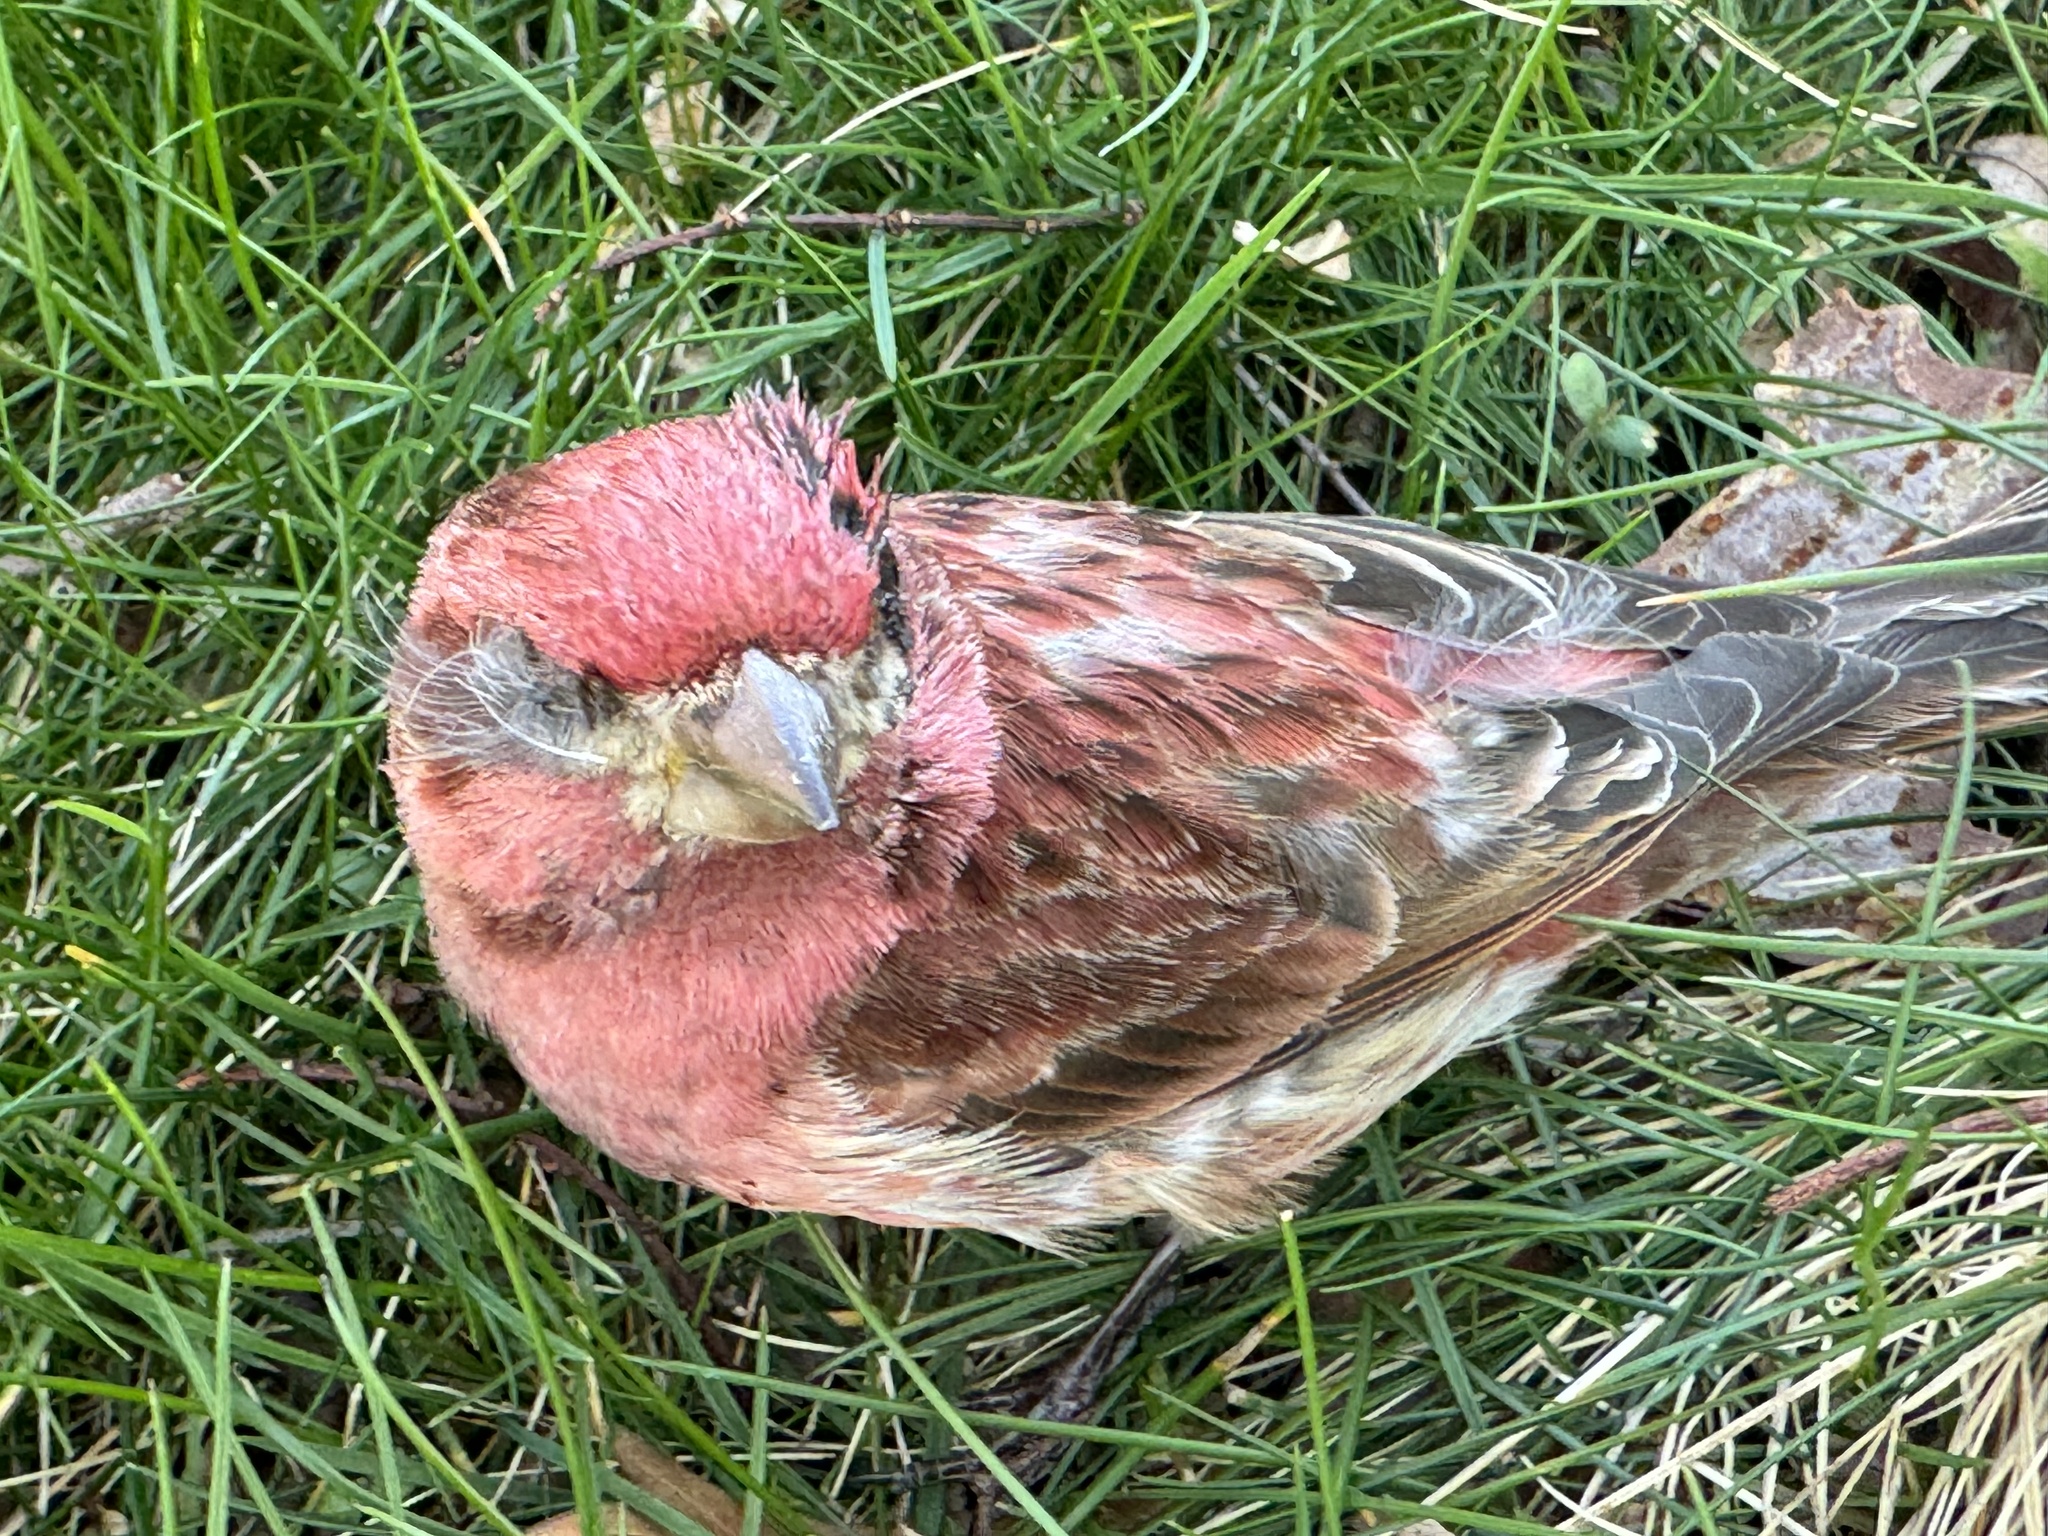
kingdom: Animalia
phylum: Chordata
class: Aves
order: Passeriformes
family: Fringillidae
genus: Haemorhous
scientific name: Haemorhous purpureus
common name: Purple finch
